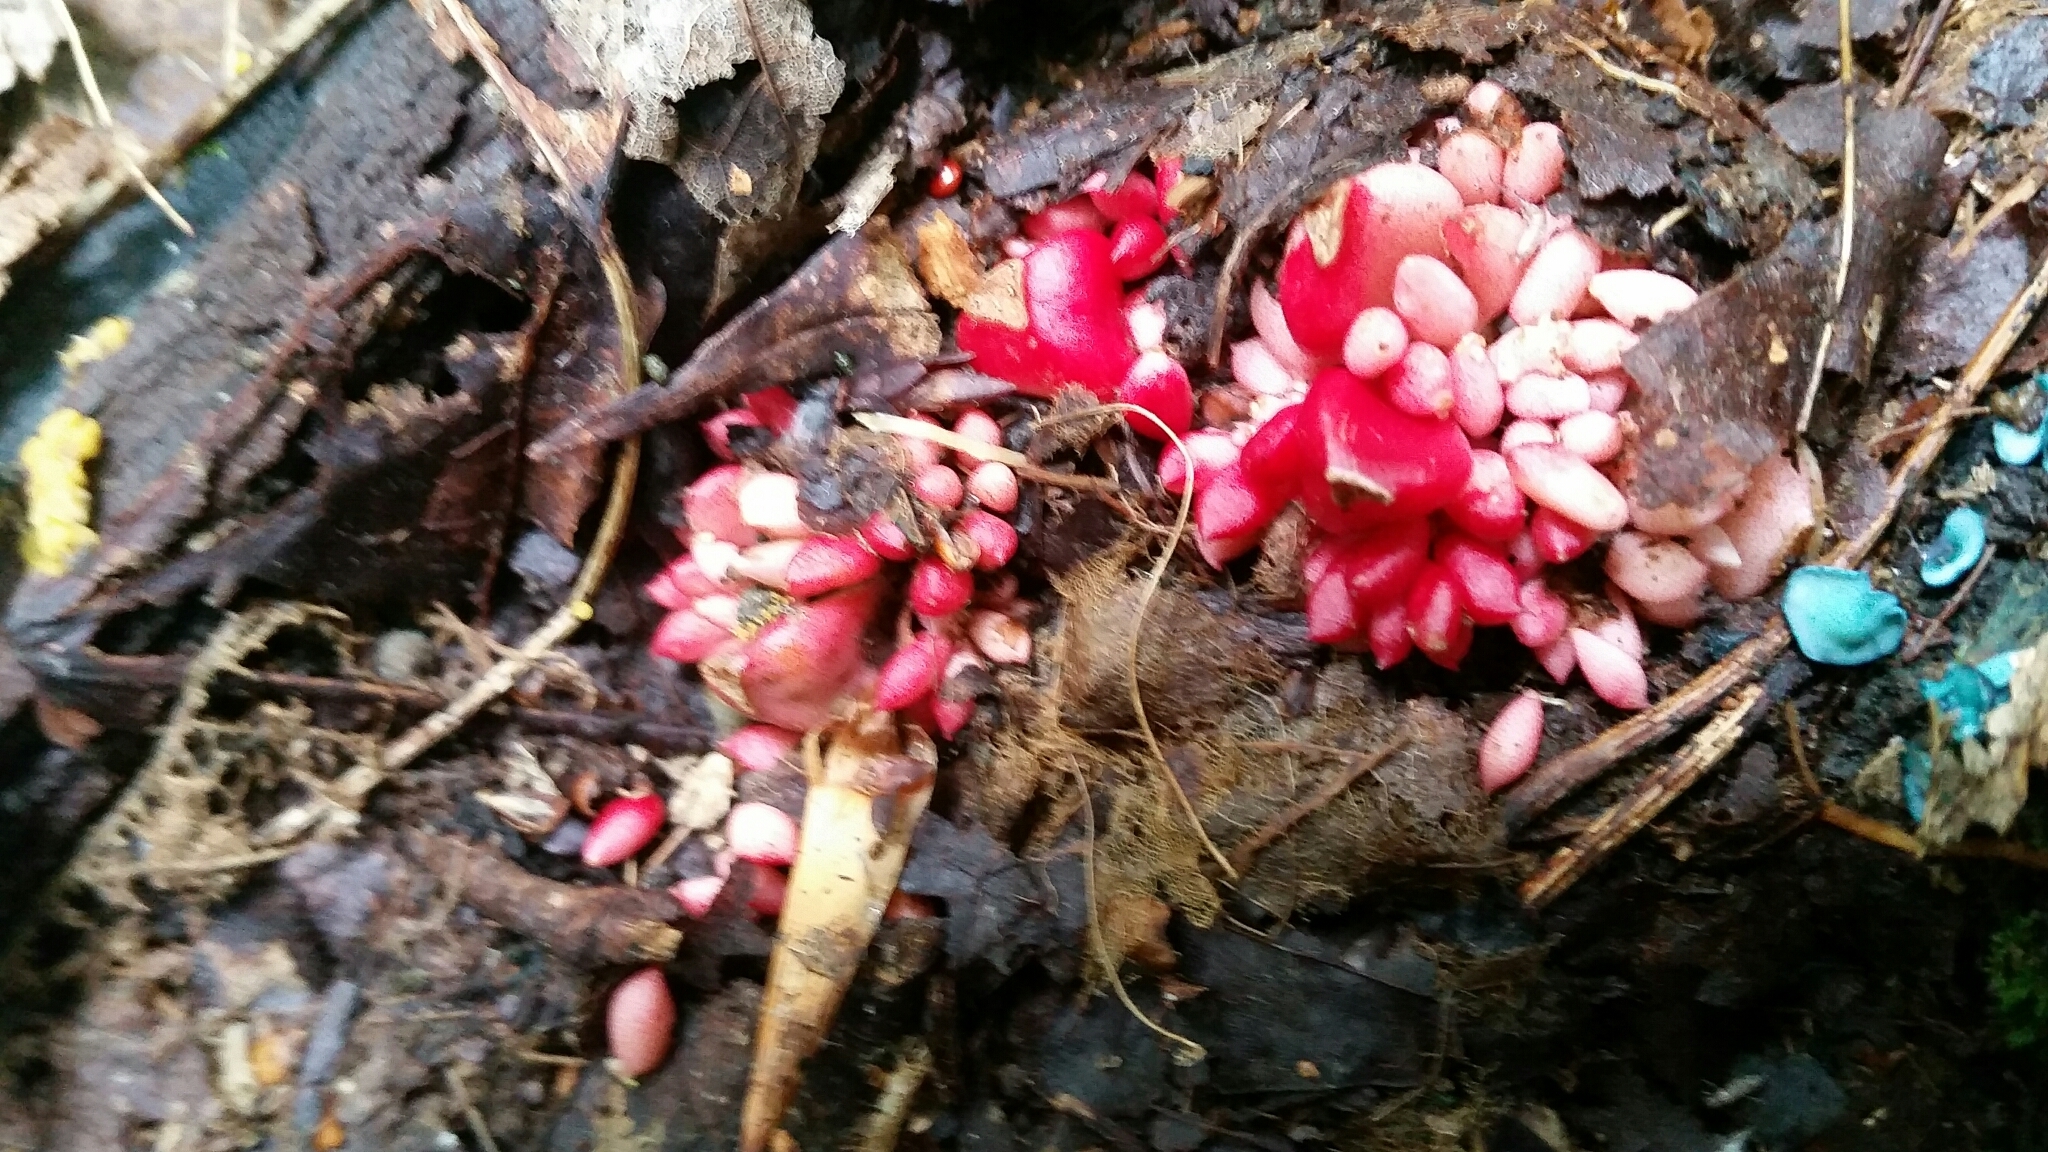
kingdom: Plantae
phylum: Tracheophyta
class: Magnoliopsida
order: Ranunculales
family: Papaveraceae
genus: Dicentra
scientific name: Dicentra cucullaria
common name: Dutchman's breeches
